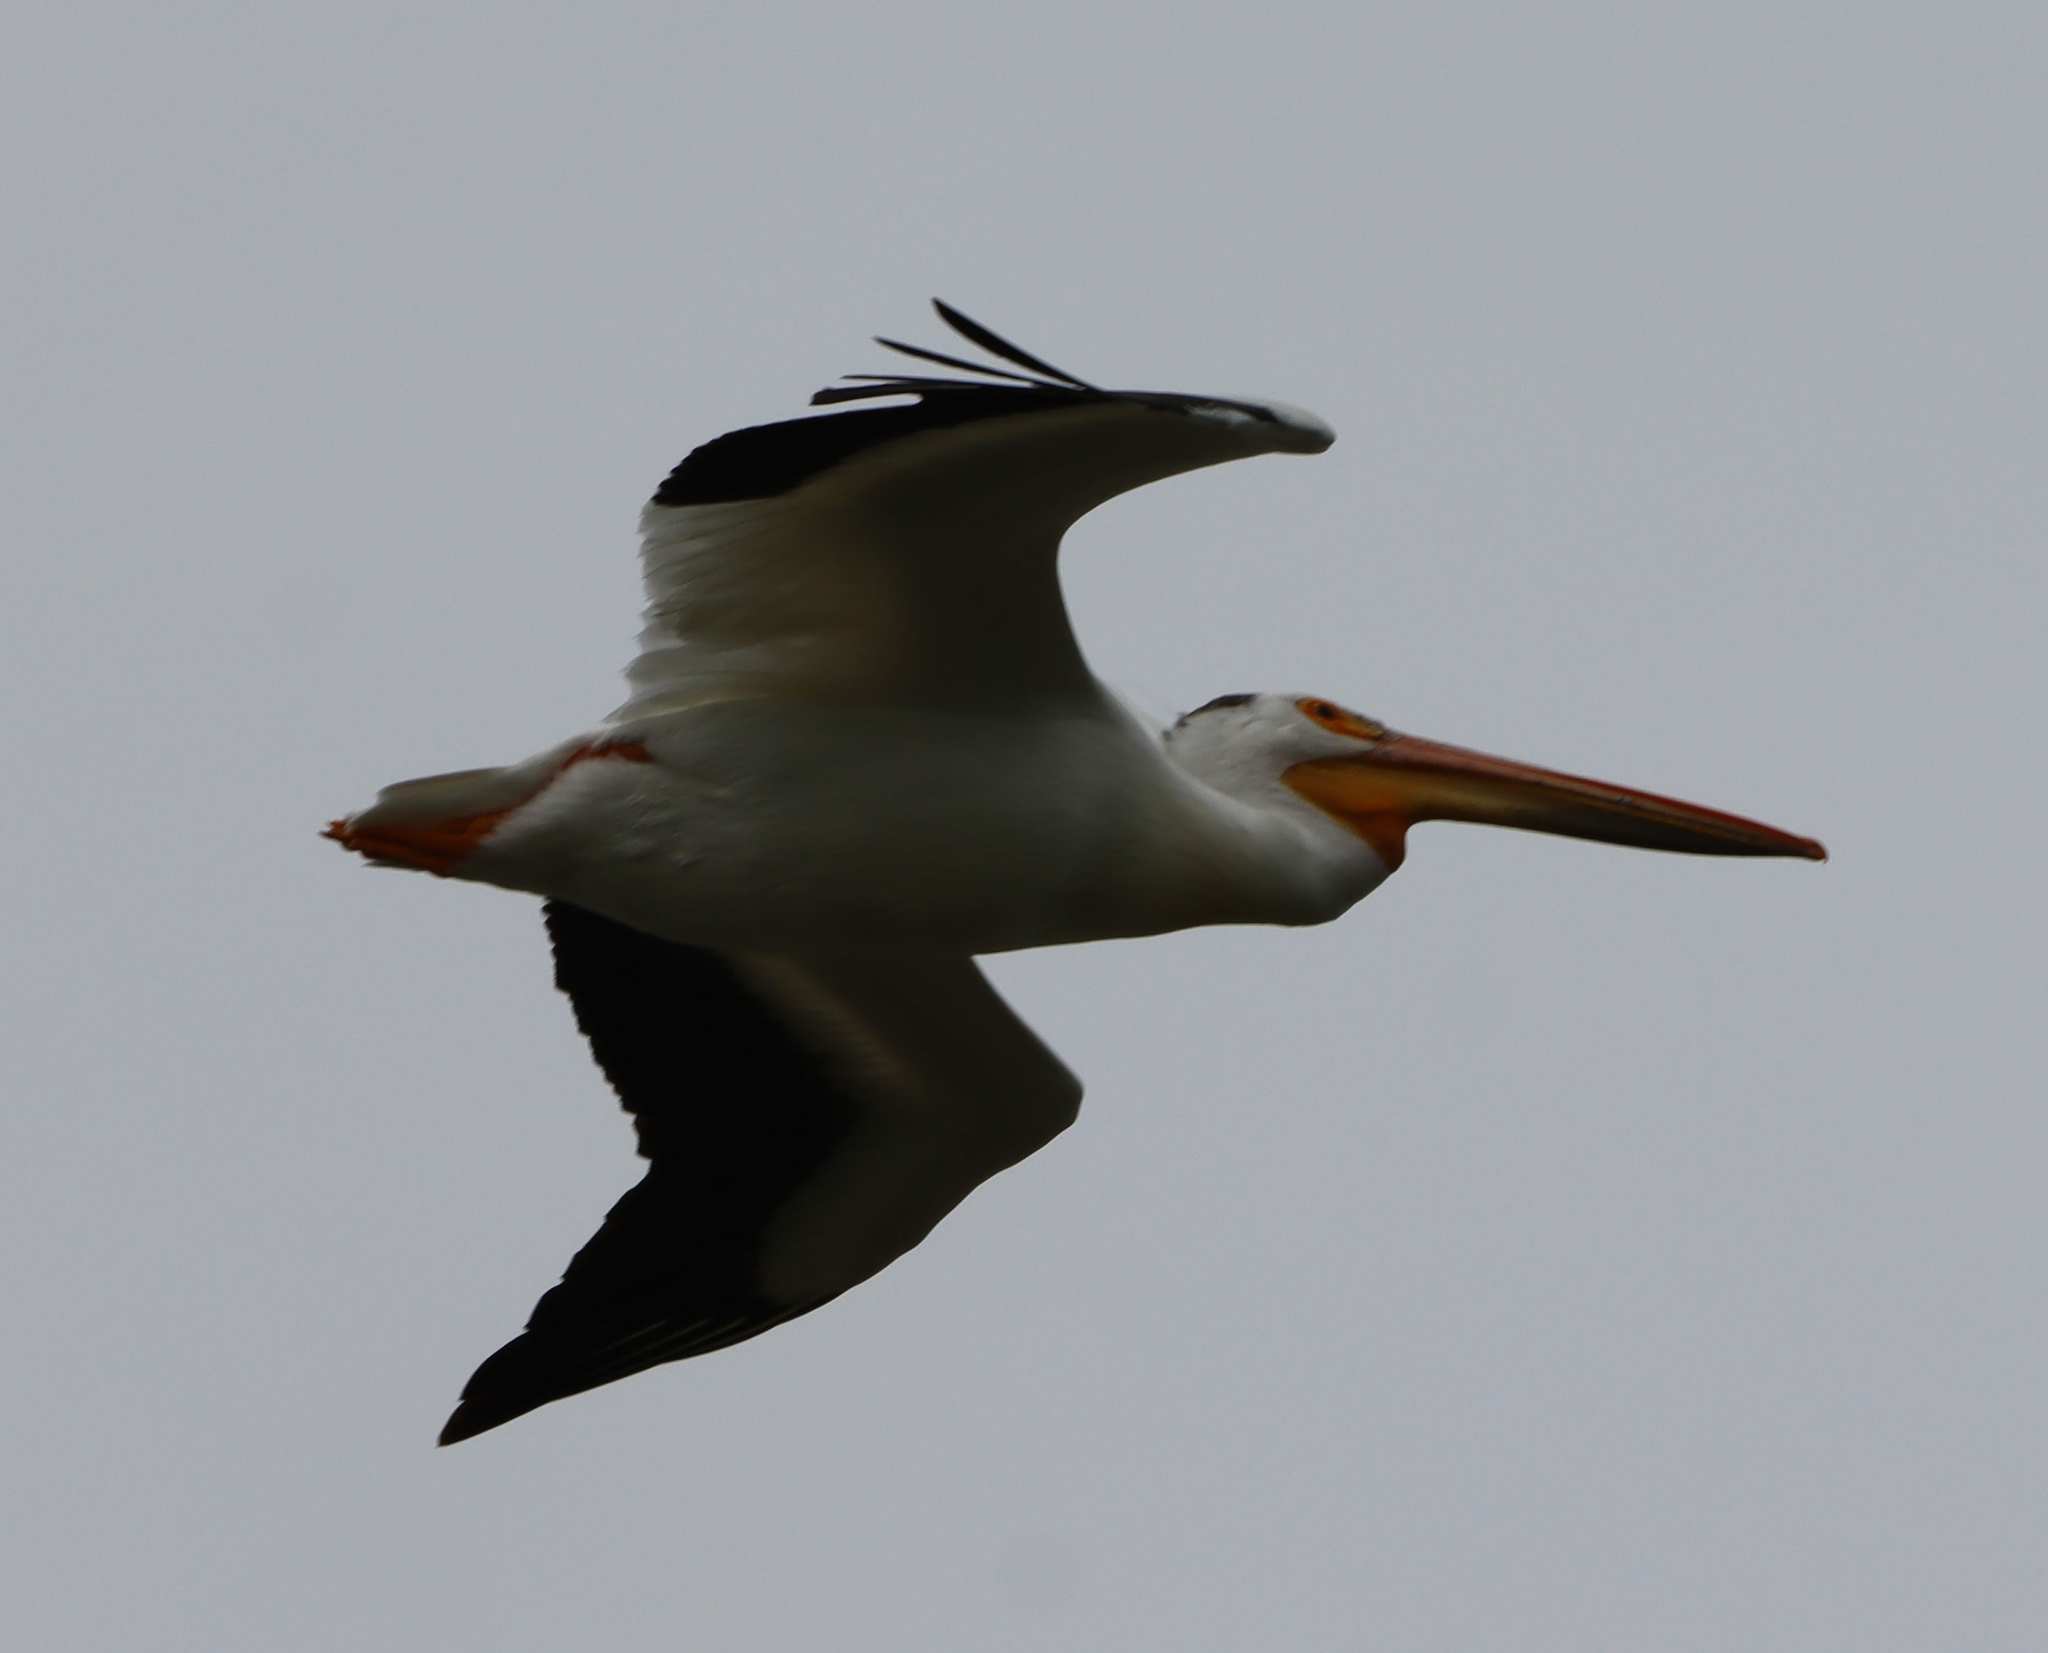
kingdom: Animalia
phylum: Chordata
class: Aves
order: Pelecaniformes
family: Pelecanidae
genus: Pelecanus
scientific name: Pelecanus erythrorhynchos
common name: American white pelican
